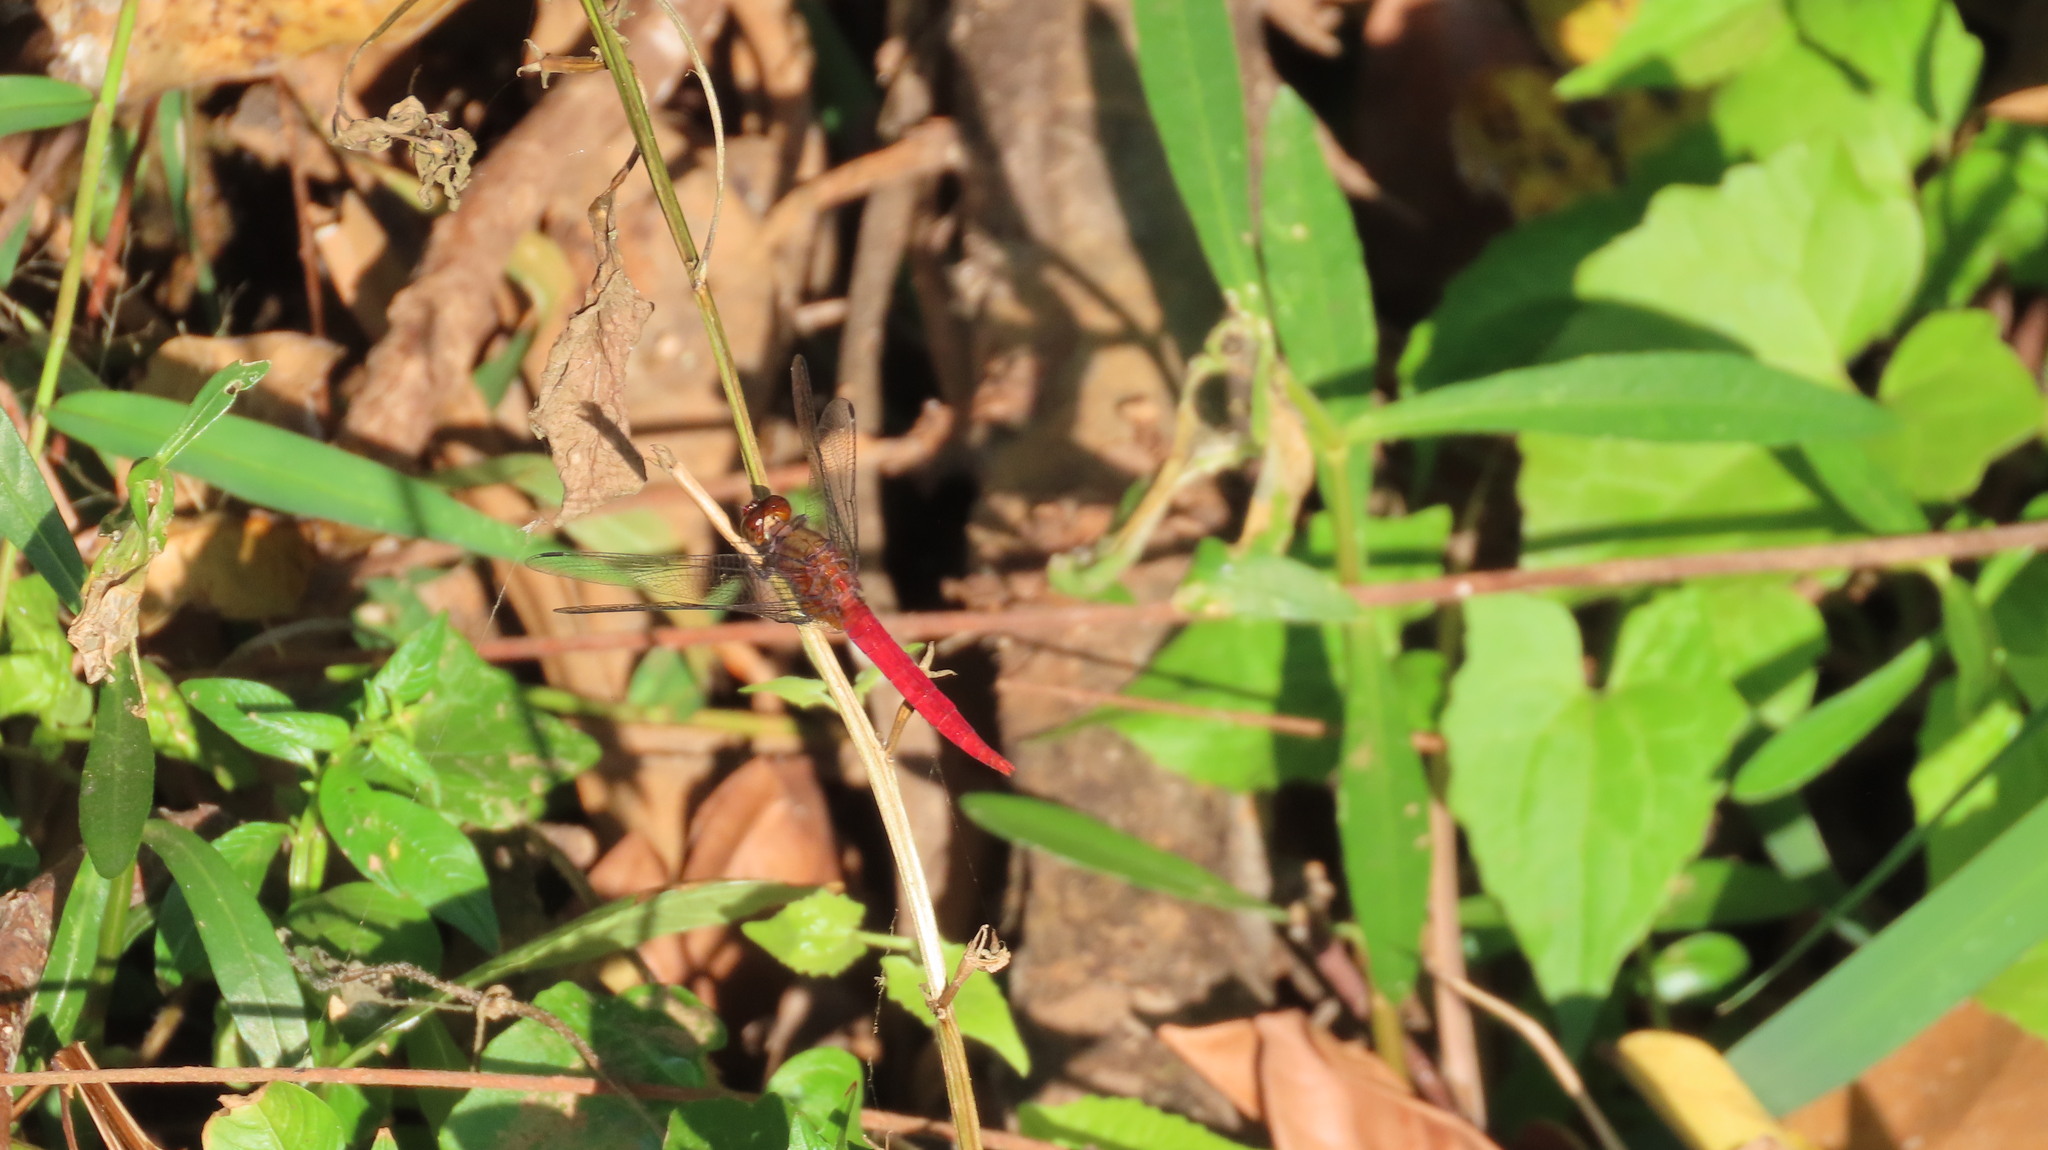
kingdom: Animalia
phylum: Arthropoda
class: Insecta
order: Odonata
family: Libellulidae
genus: Orthetrum
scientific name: Orthetrum chrysis
